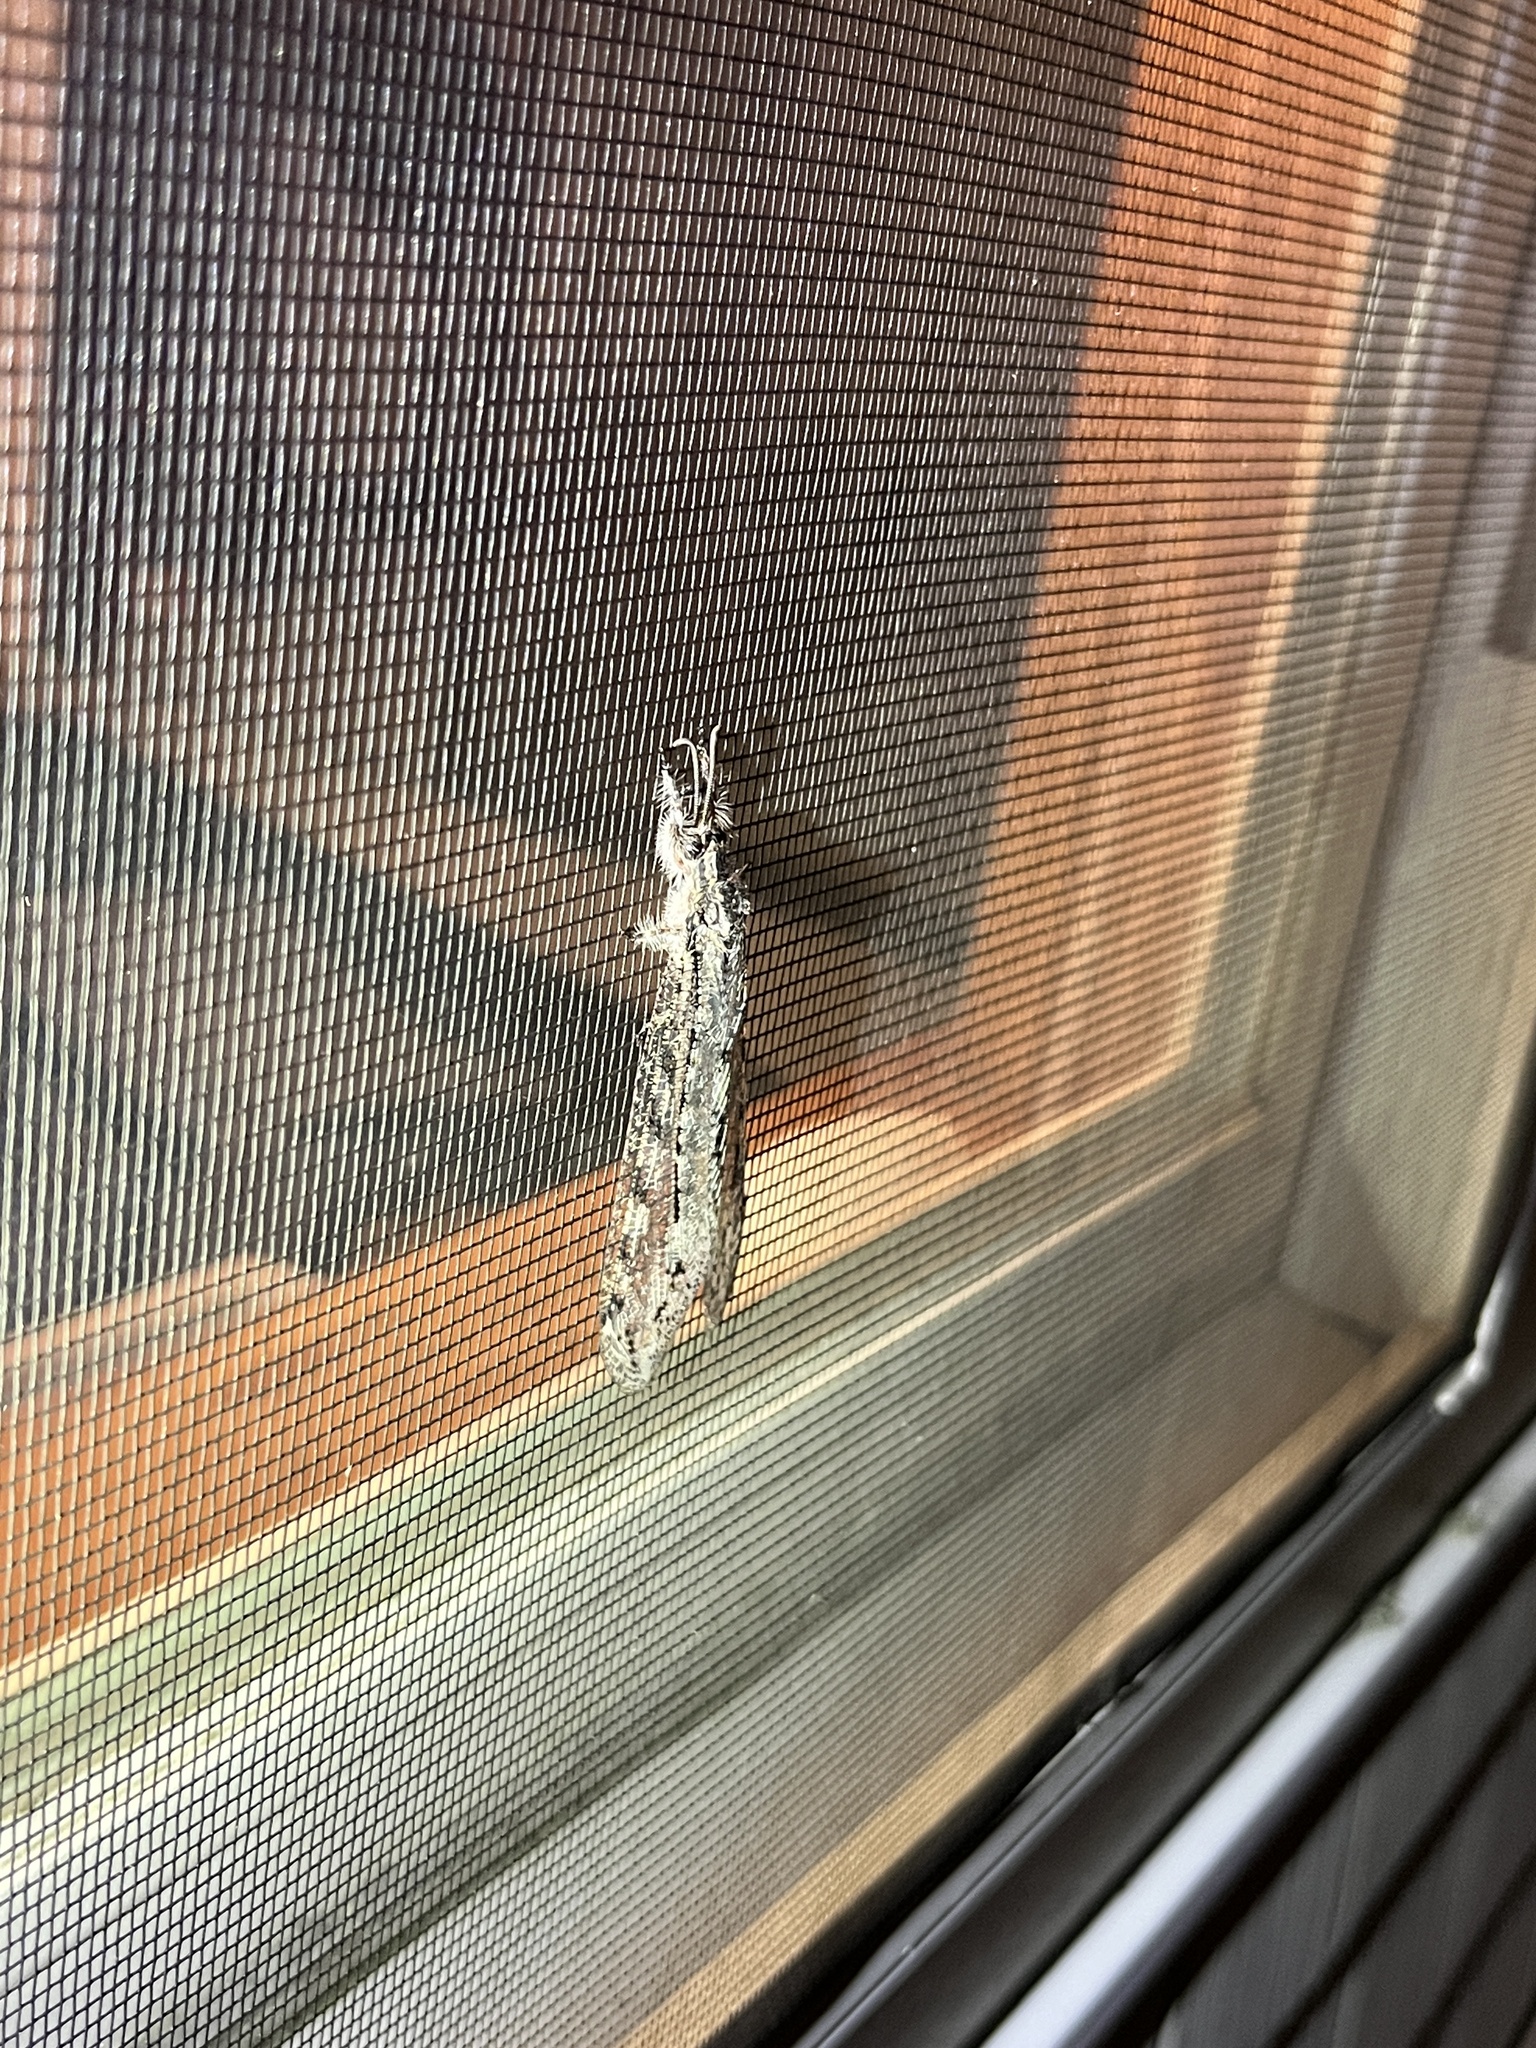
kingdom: Animalia
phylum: Arthropoda
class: Insecta
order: Neuroptera
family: Myrmeleontidae
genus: Vella
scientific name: Vella americana
